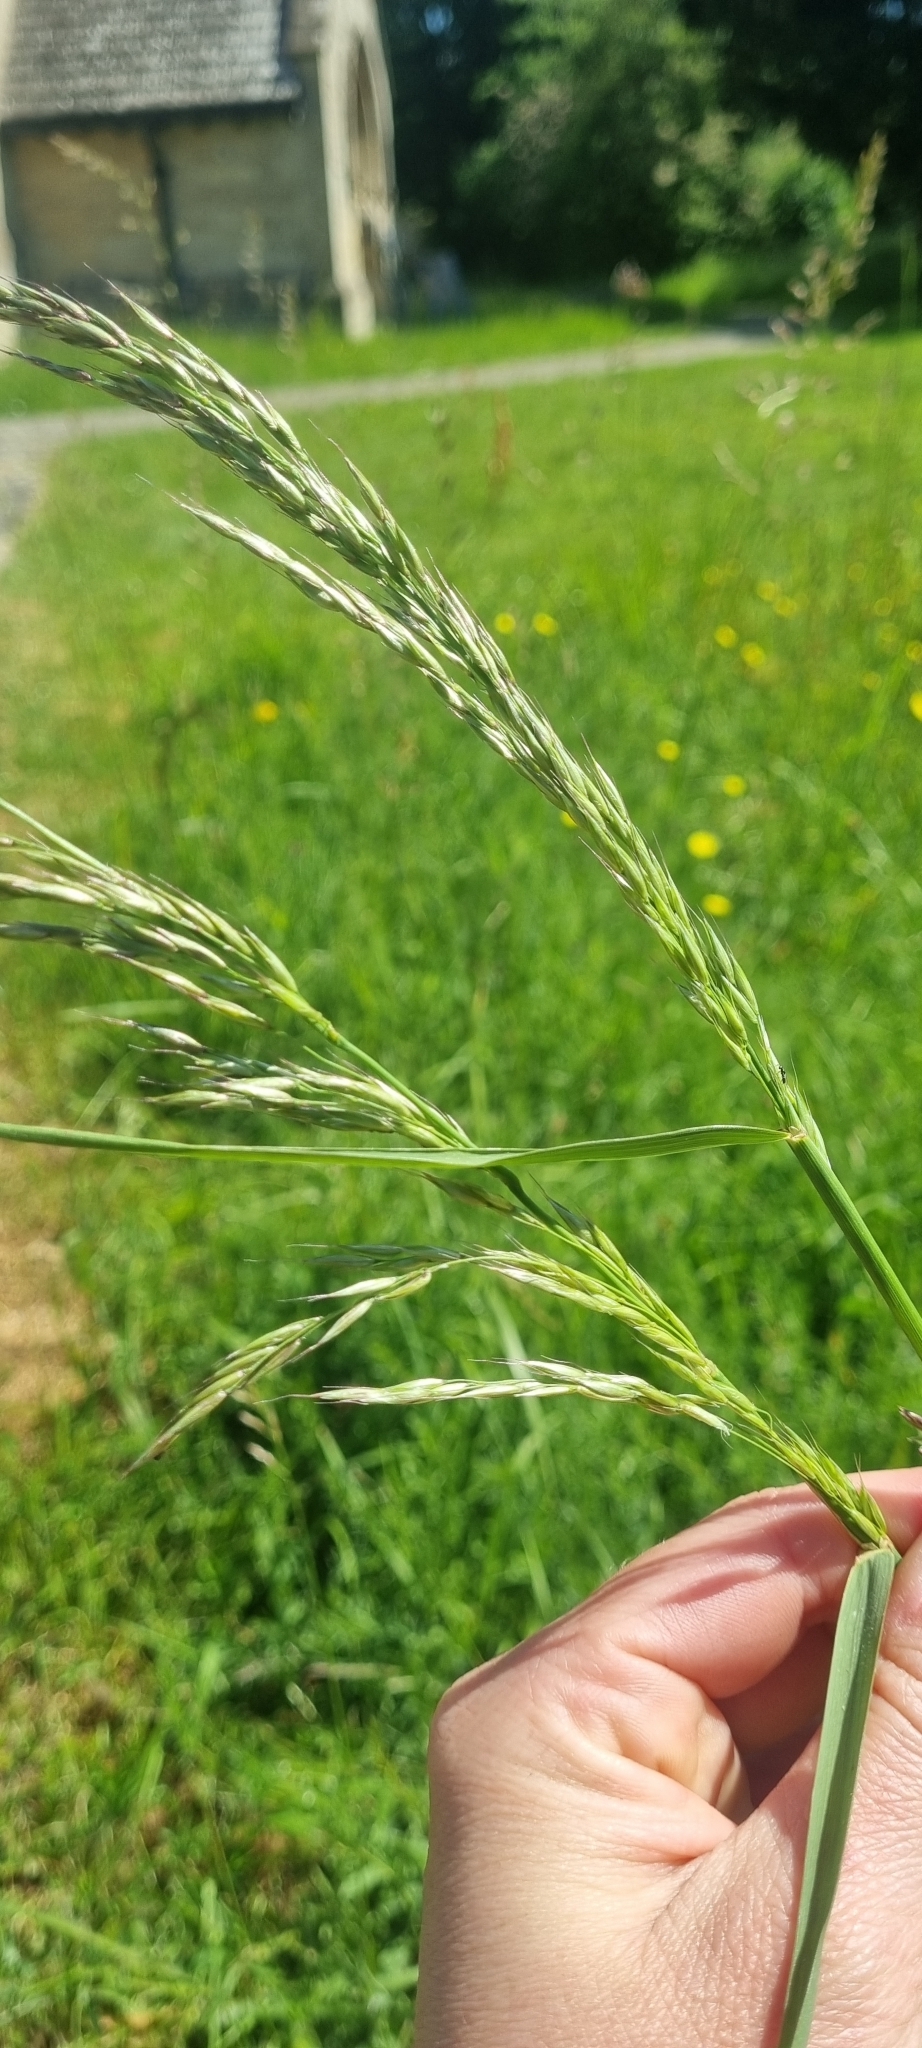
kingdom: Plantae
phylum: Tracheophyta
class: Liliopsida
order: Poales
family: Poaceae
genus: Arrhenatherum
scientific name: Arrhenatherum elatius
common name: Tall oatgrass
